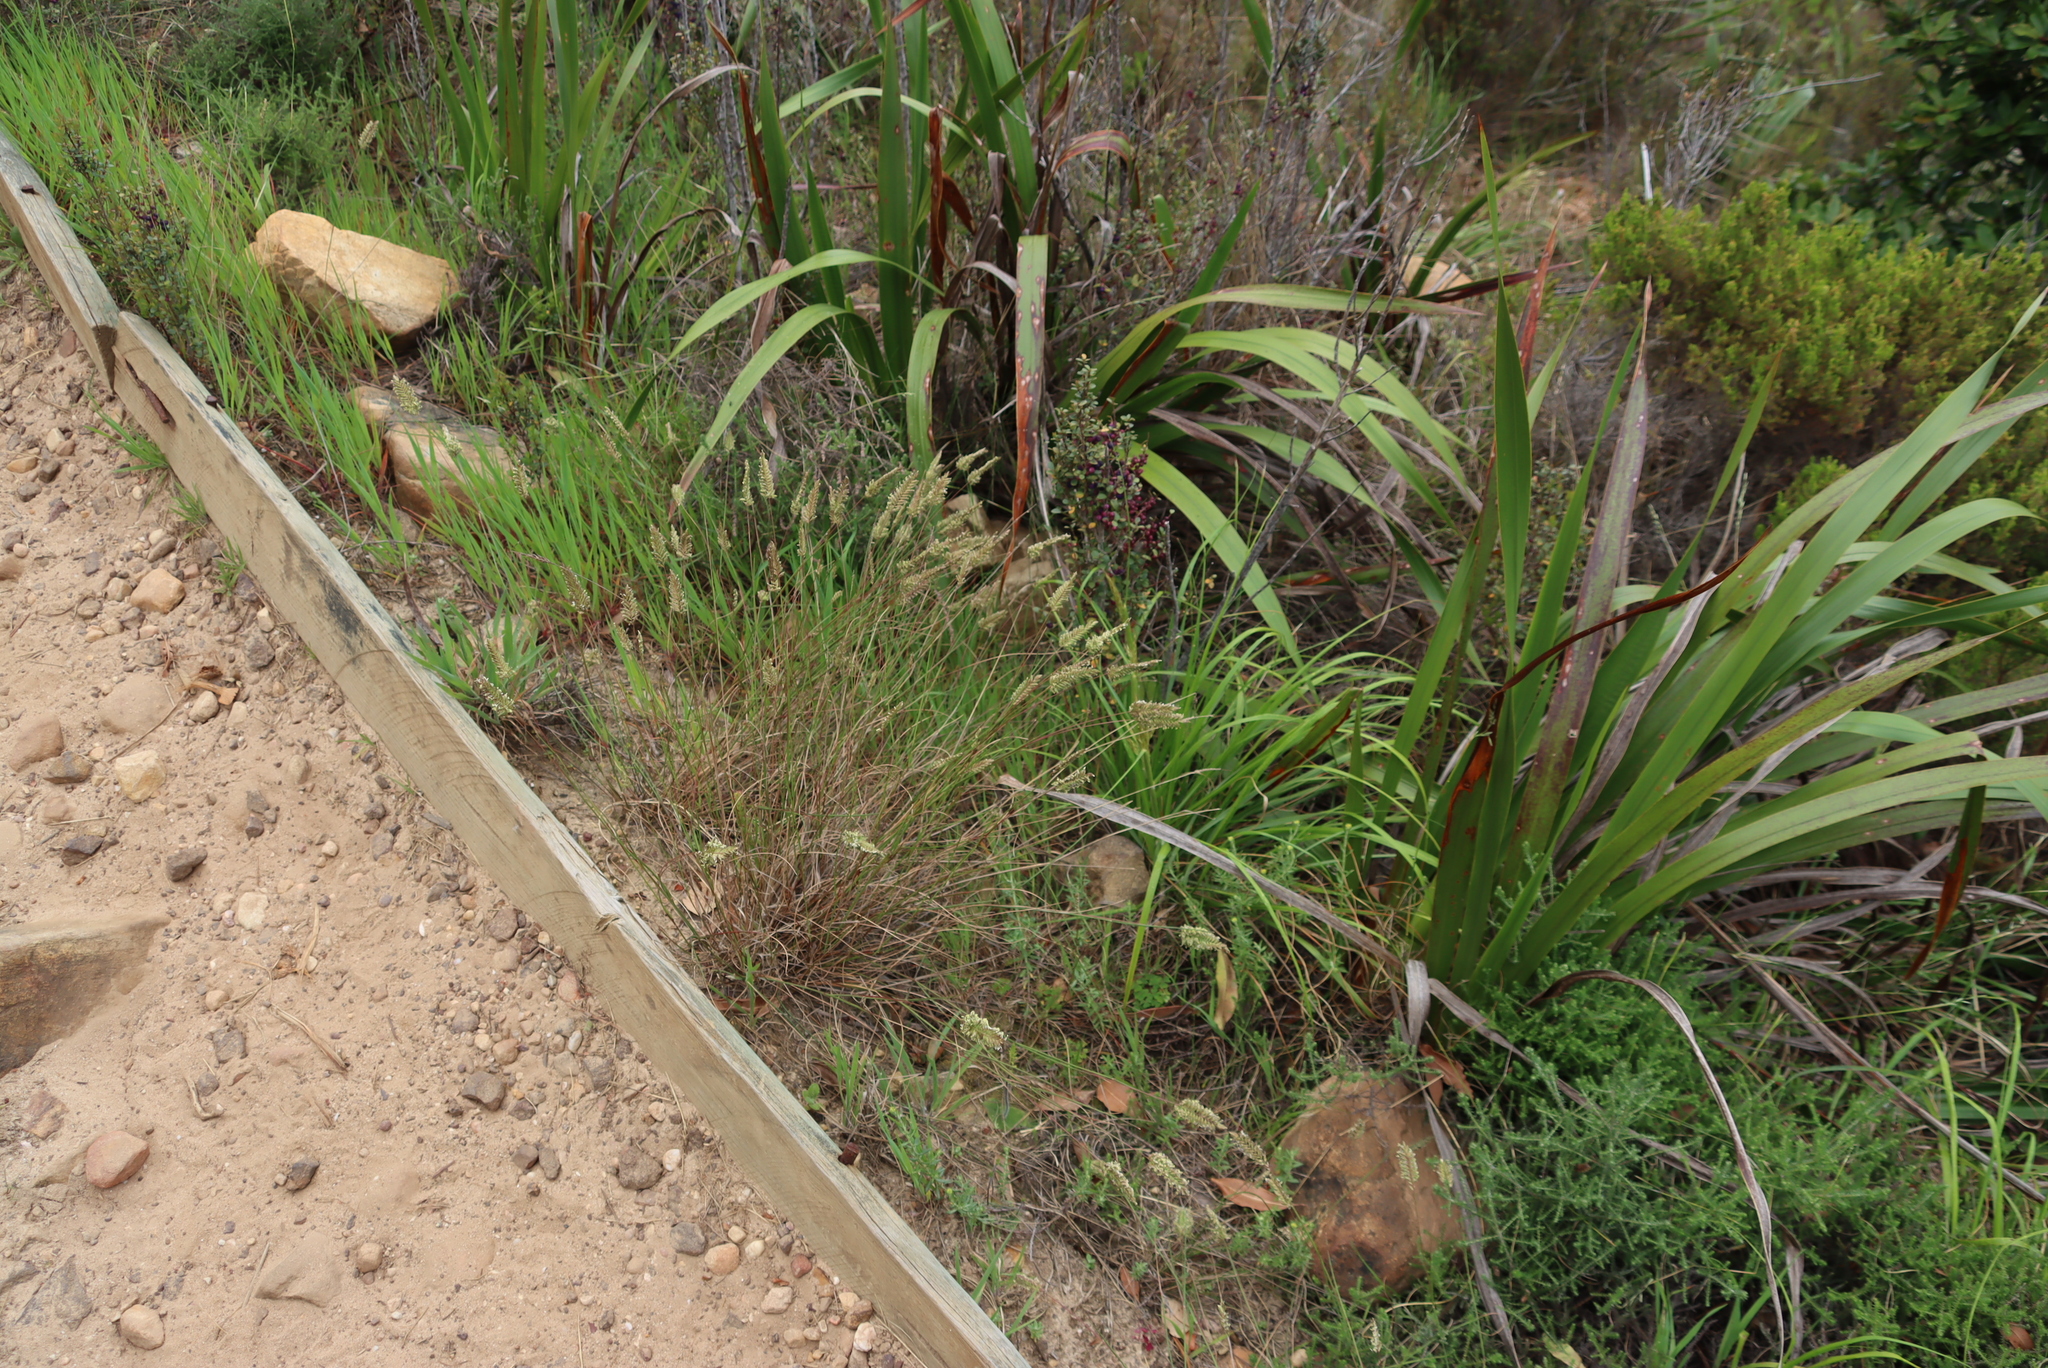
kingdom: Plantae
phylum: Tracheophyta
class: Liliopsida
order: Poales
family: Poaceae
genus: Tribolium
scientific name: Tribolium uniolae
